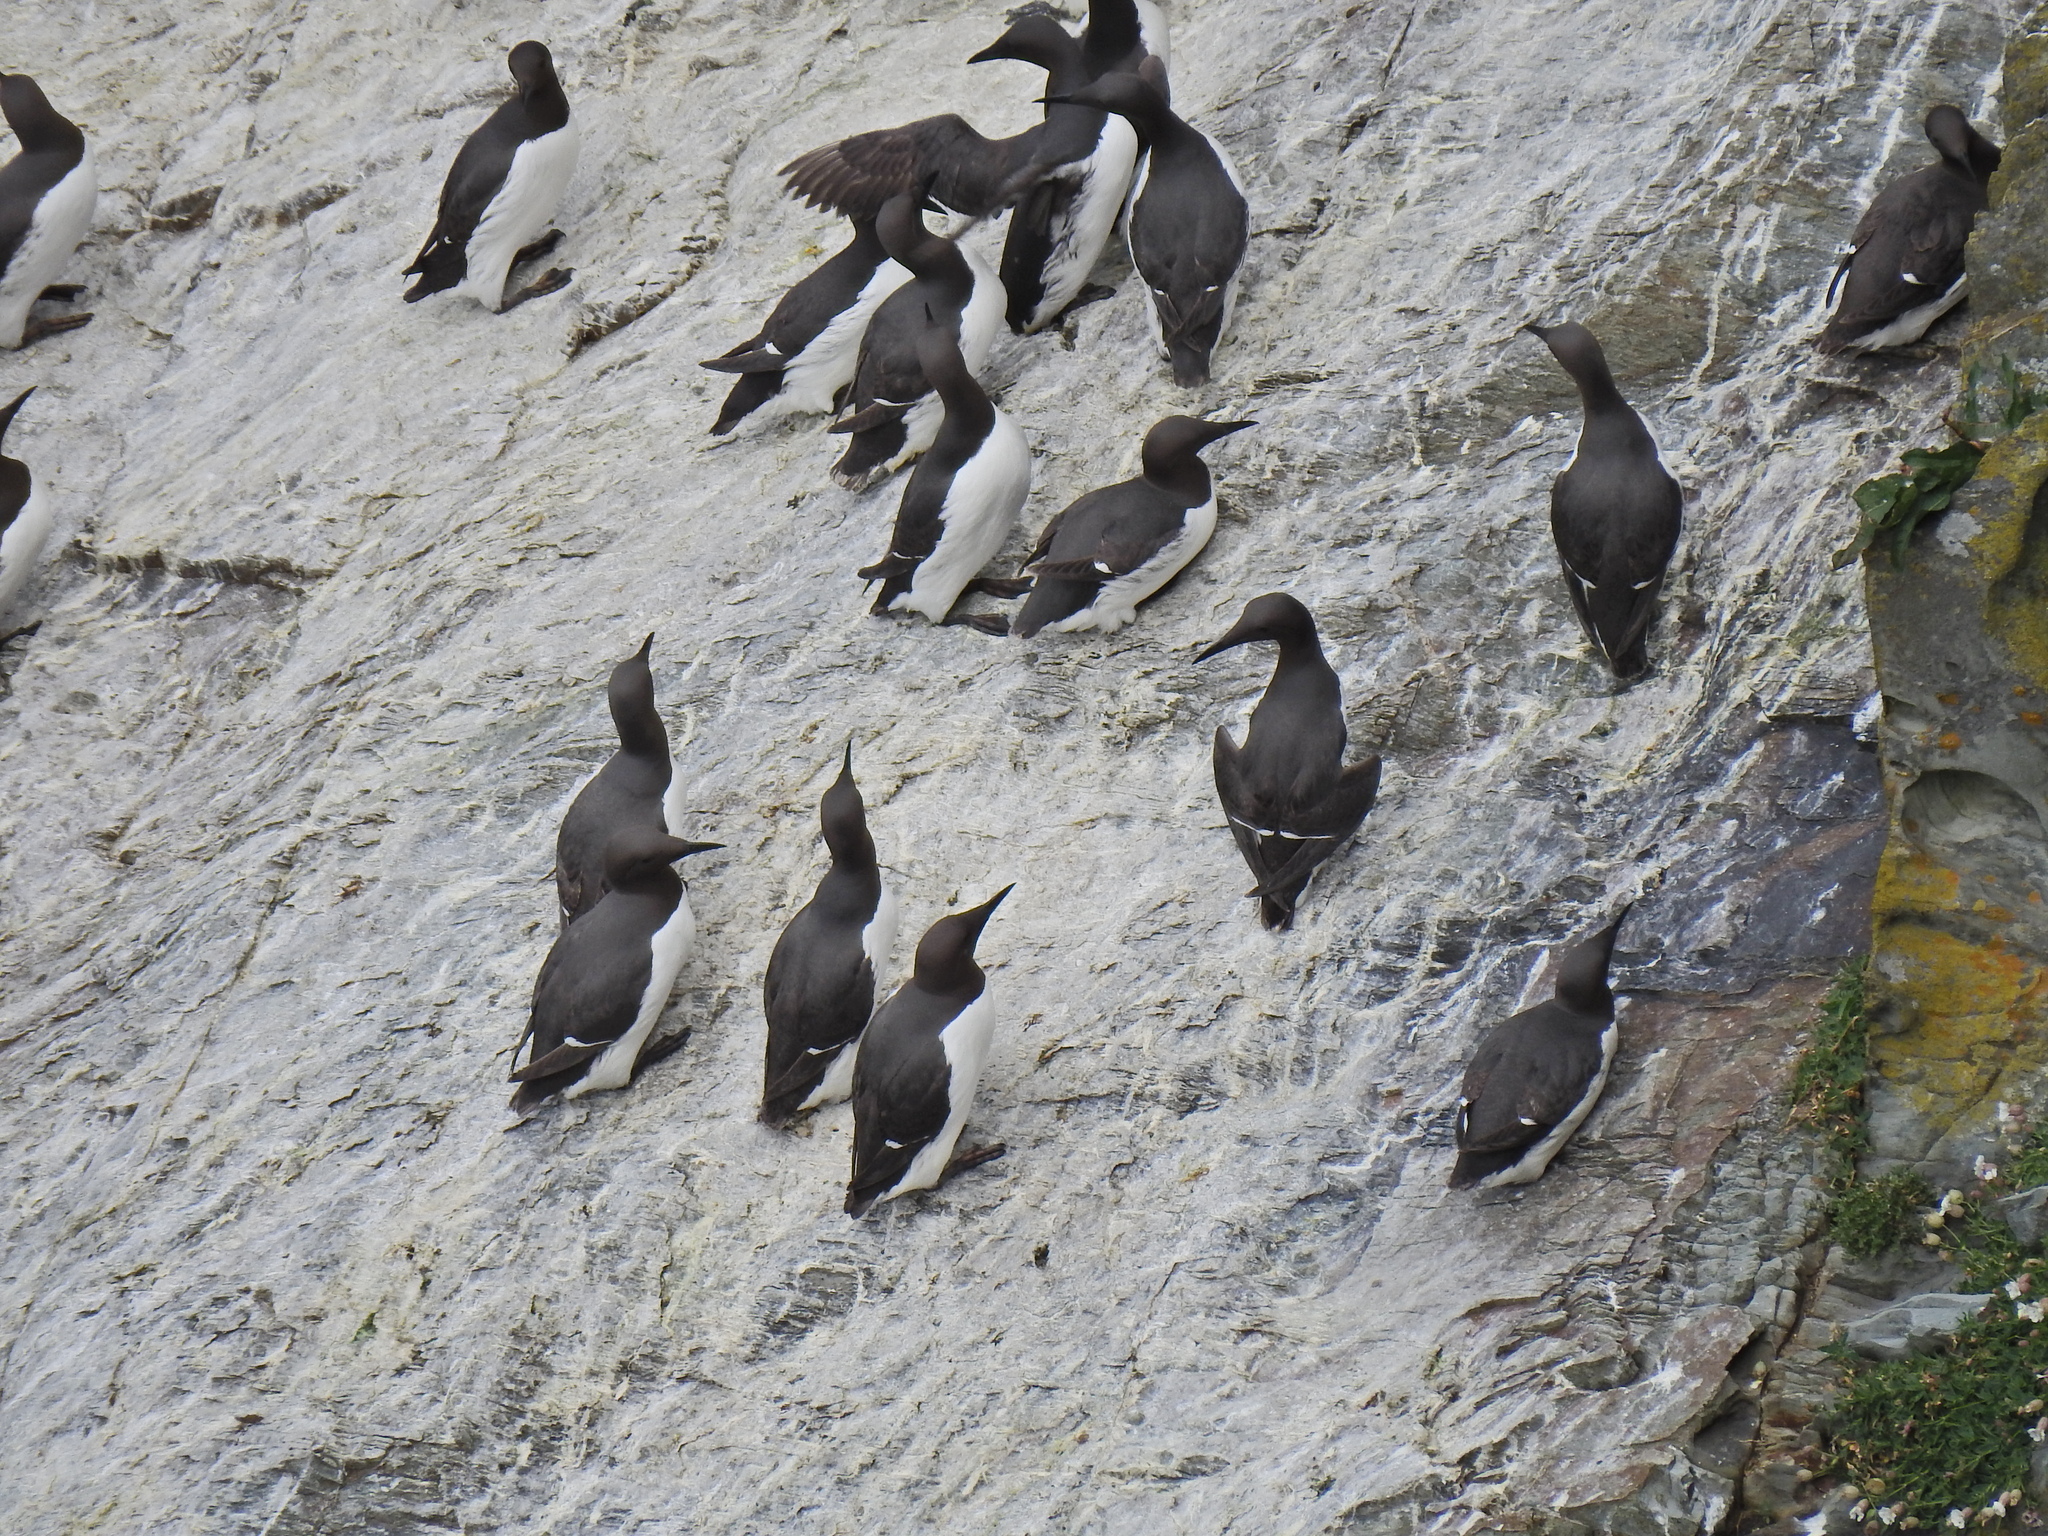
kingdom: Animalia
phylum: Chordata
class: Aves
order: Charadriiformes
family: Alcidae
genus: Uria
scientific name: Uria aalge
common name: Common murre
